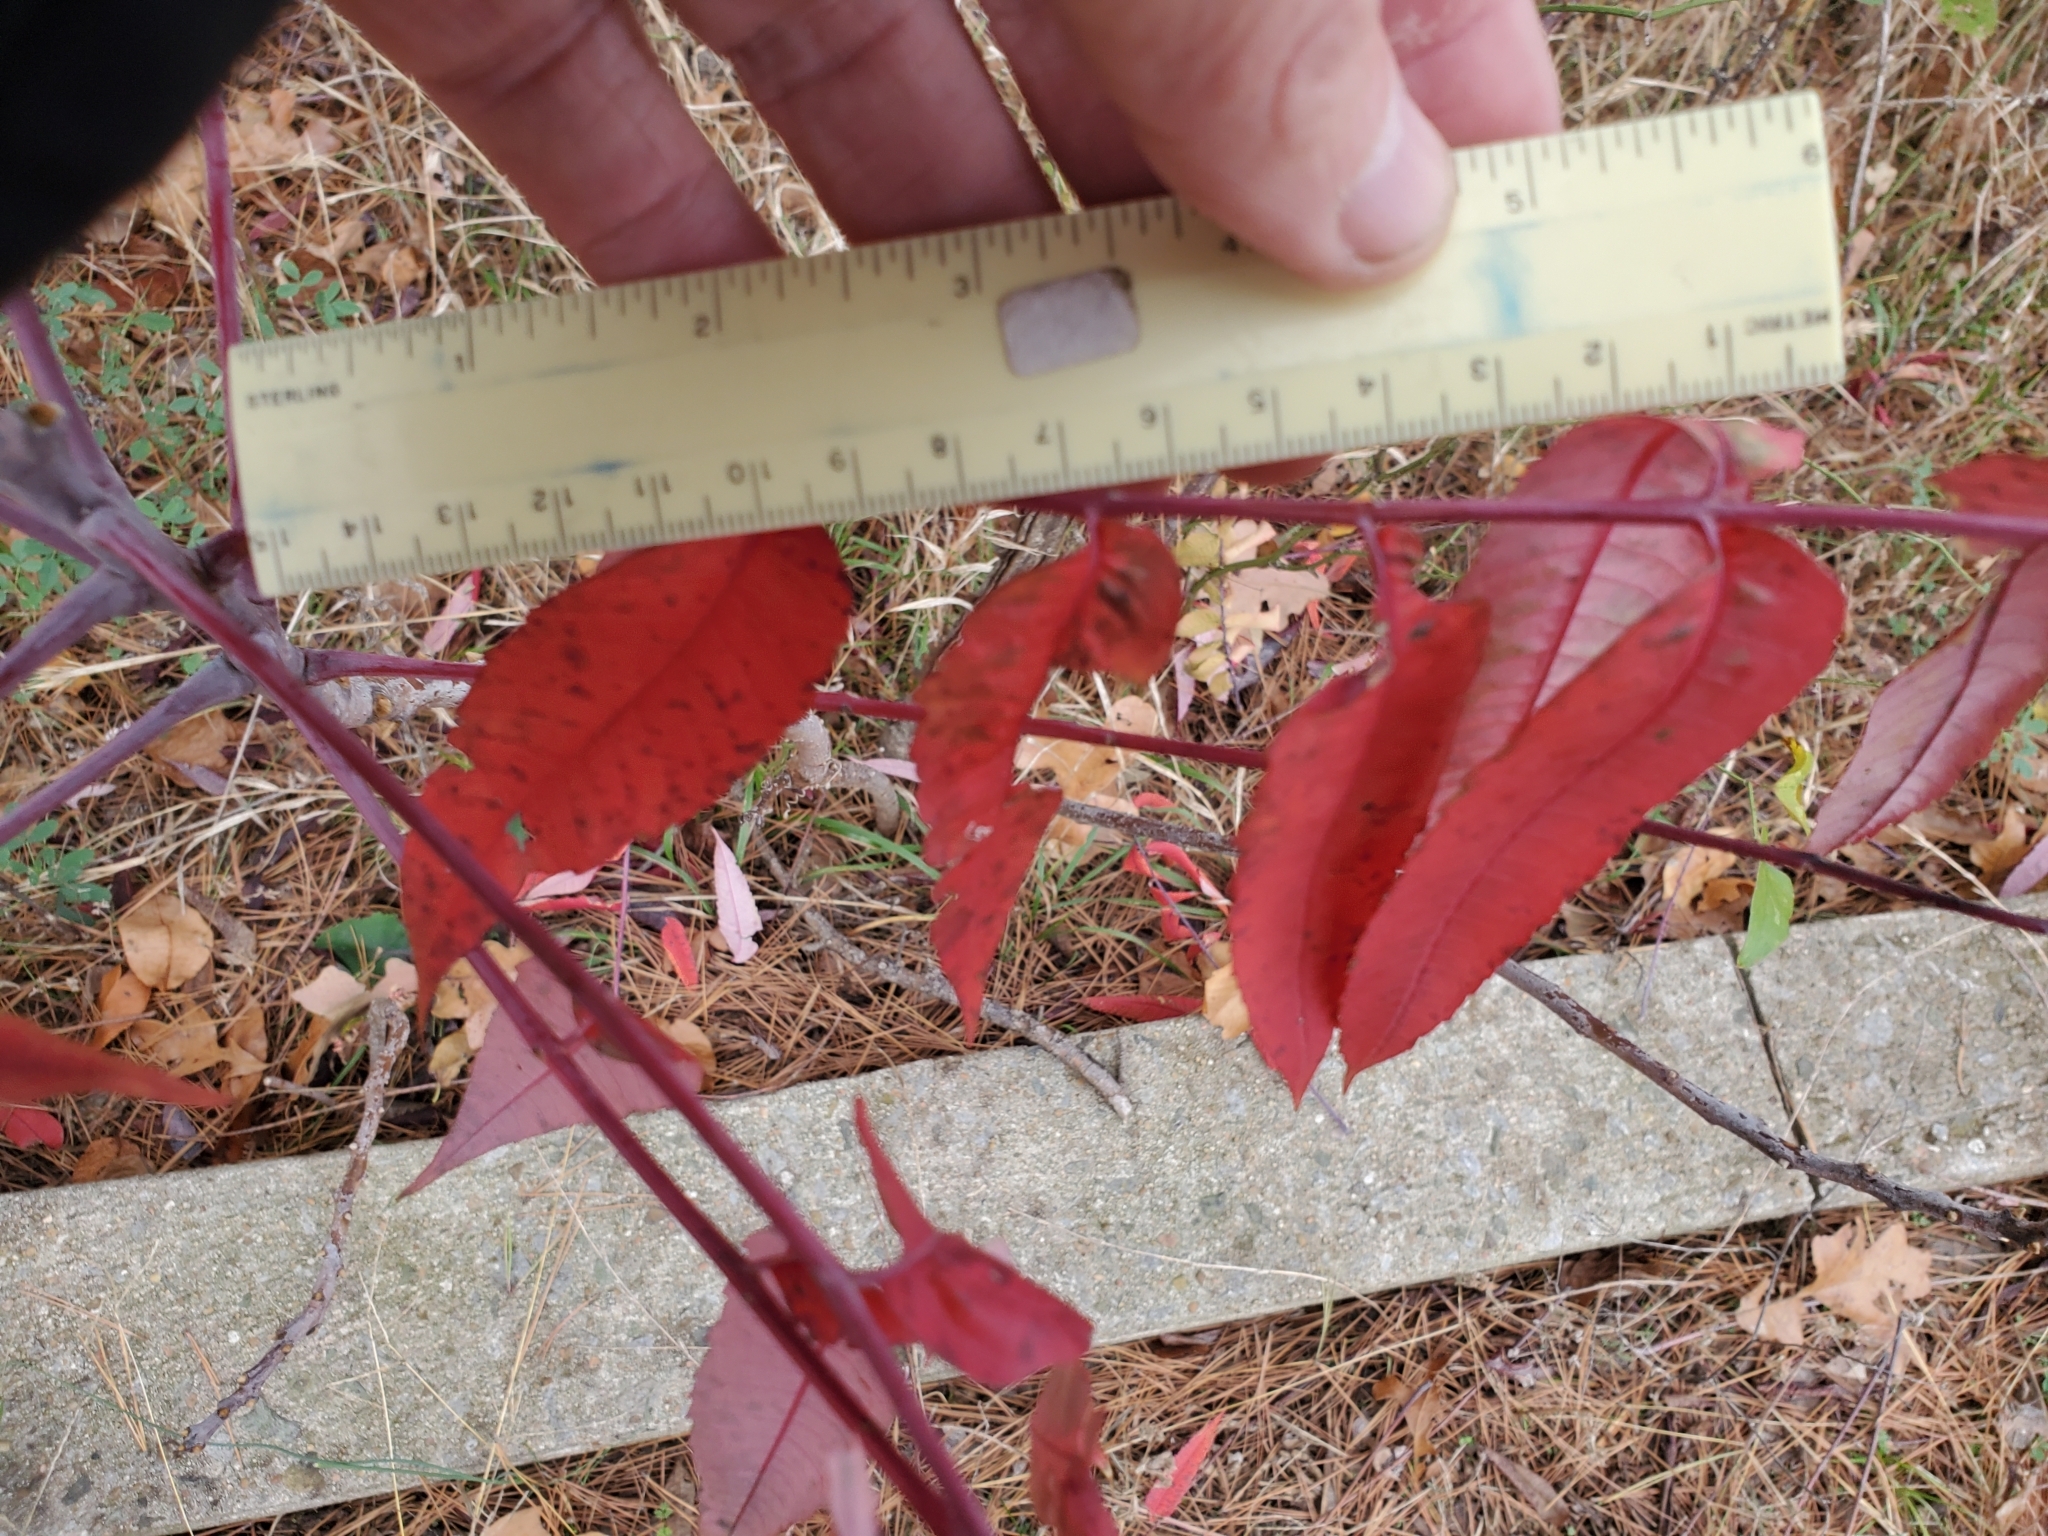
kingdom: Plantae
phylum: Tracheophyta
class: Magnoliopsida
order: Sapindales
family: Anacardiaceae
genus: Rhus
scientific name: Rhus glabra
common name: Scarlet sumac
